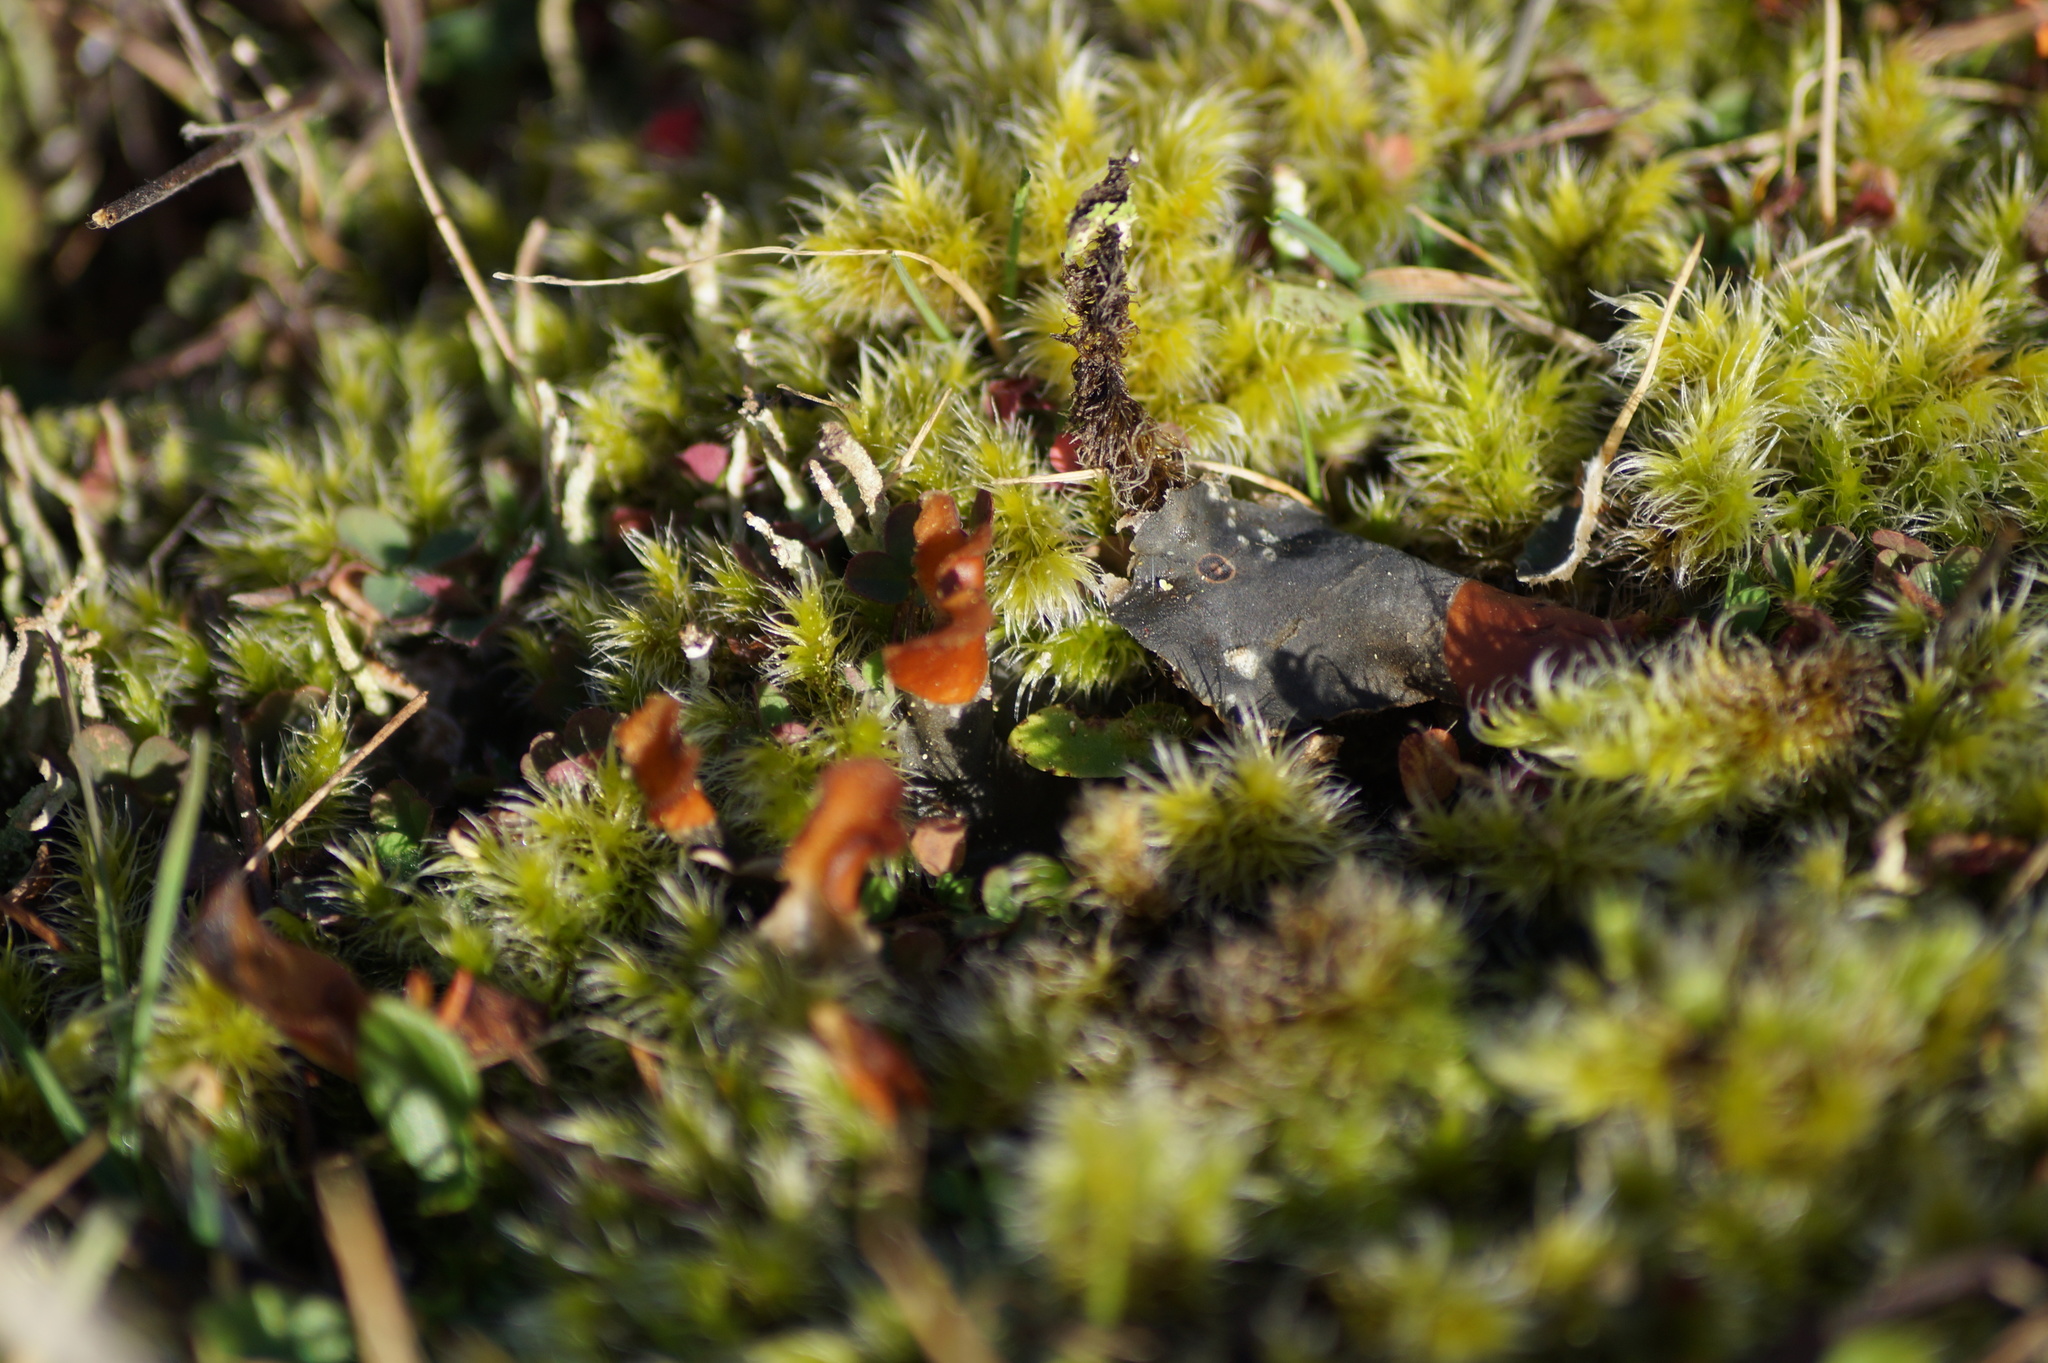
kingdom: Plantae
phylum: Bryophyta
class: Bryopsida
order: Grimmiales
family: Grimmiaceae
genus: Racomitrium
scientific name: Racomitrium pruinosum
